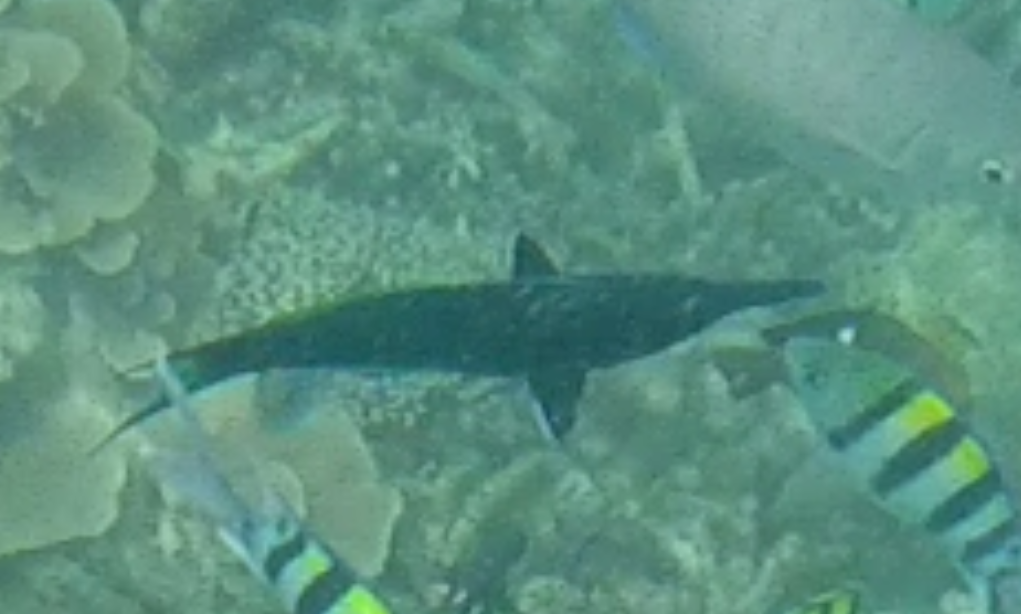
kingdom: Animalia
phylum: Chordata
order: Perciformes
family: Labridae
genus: Gomphosus
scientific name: Gomphosus caeruleus
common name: Bird wrasse
